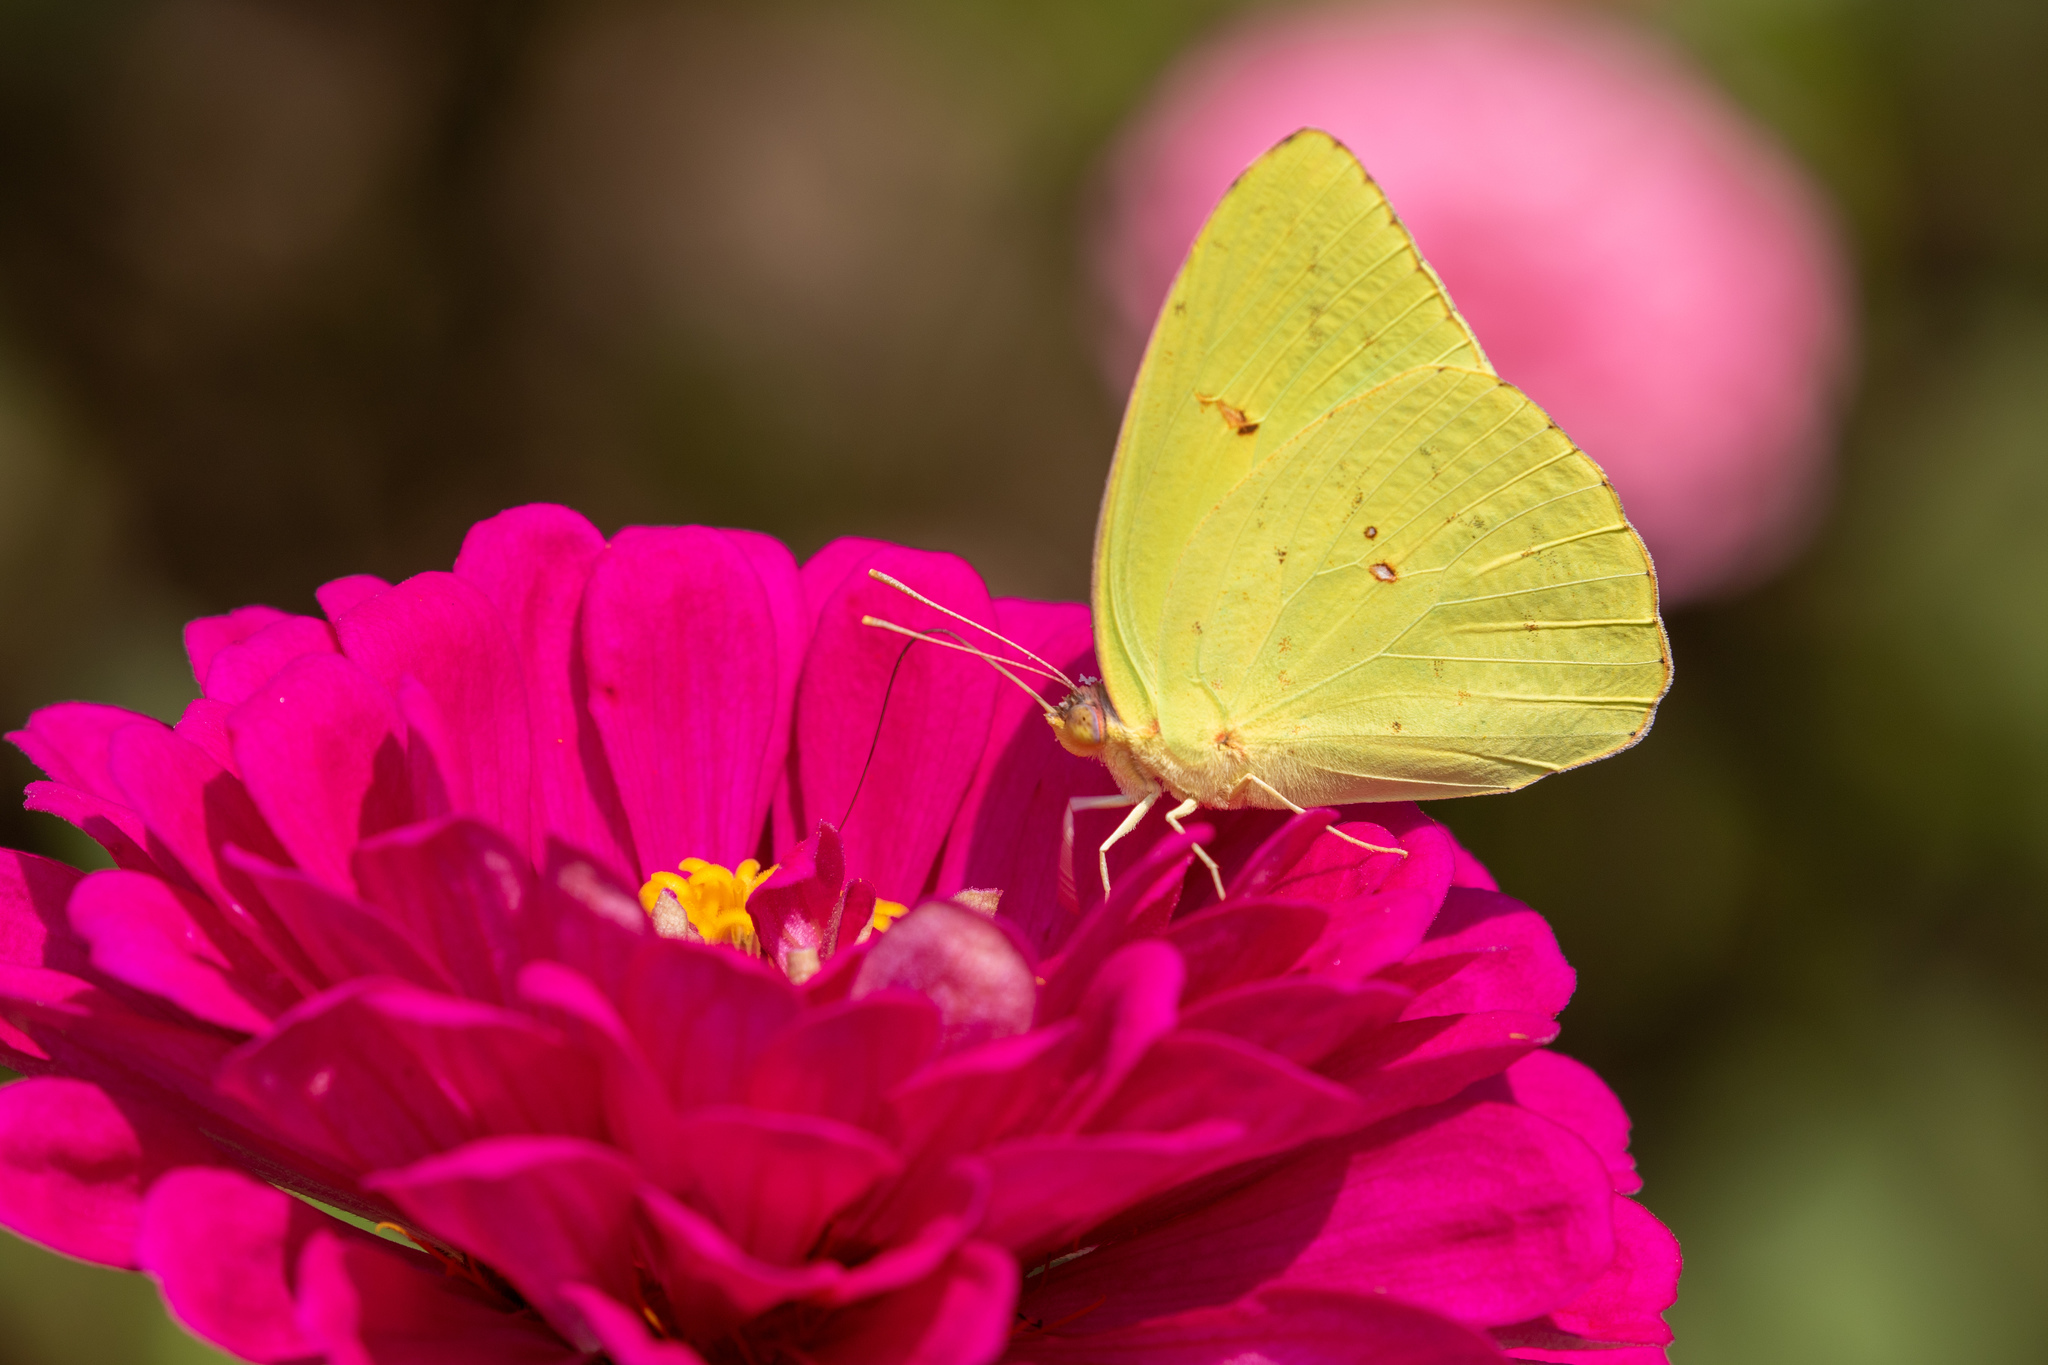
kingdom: Animalia
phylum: Arthropoda
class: Insecta
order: Lepidoptera
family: Pieridae
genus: Phoebis
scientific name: Phoebis sennae
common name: Cloudless sulphur
